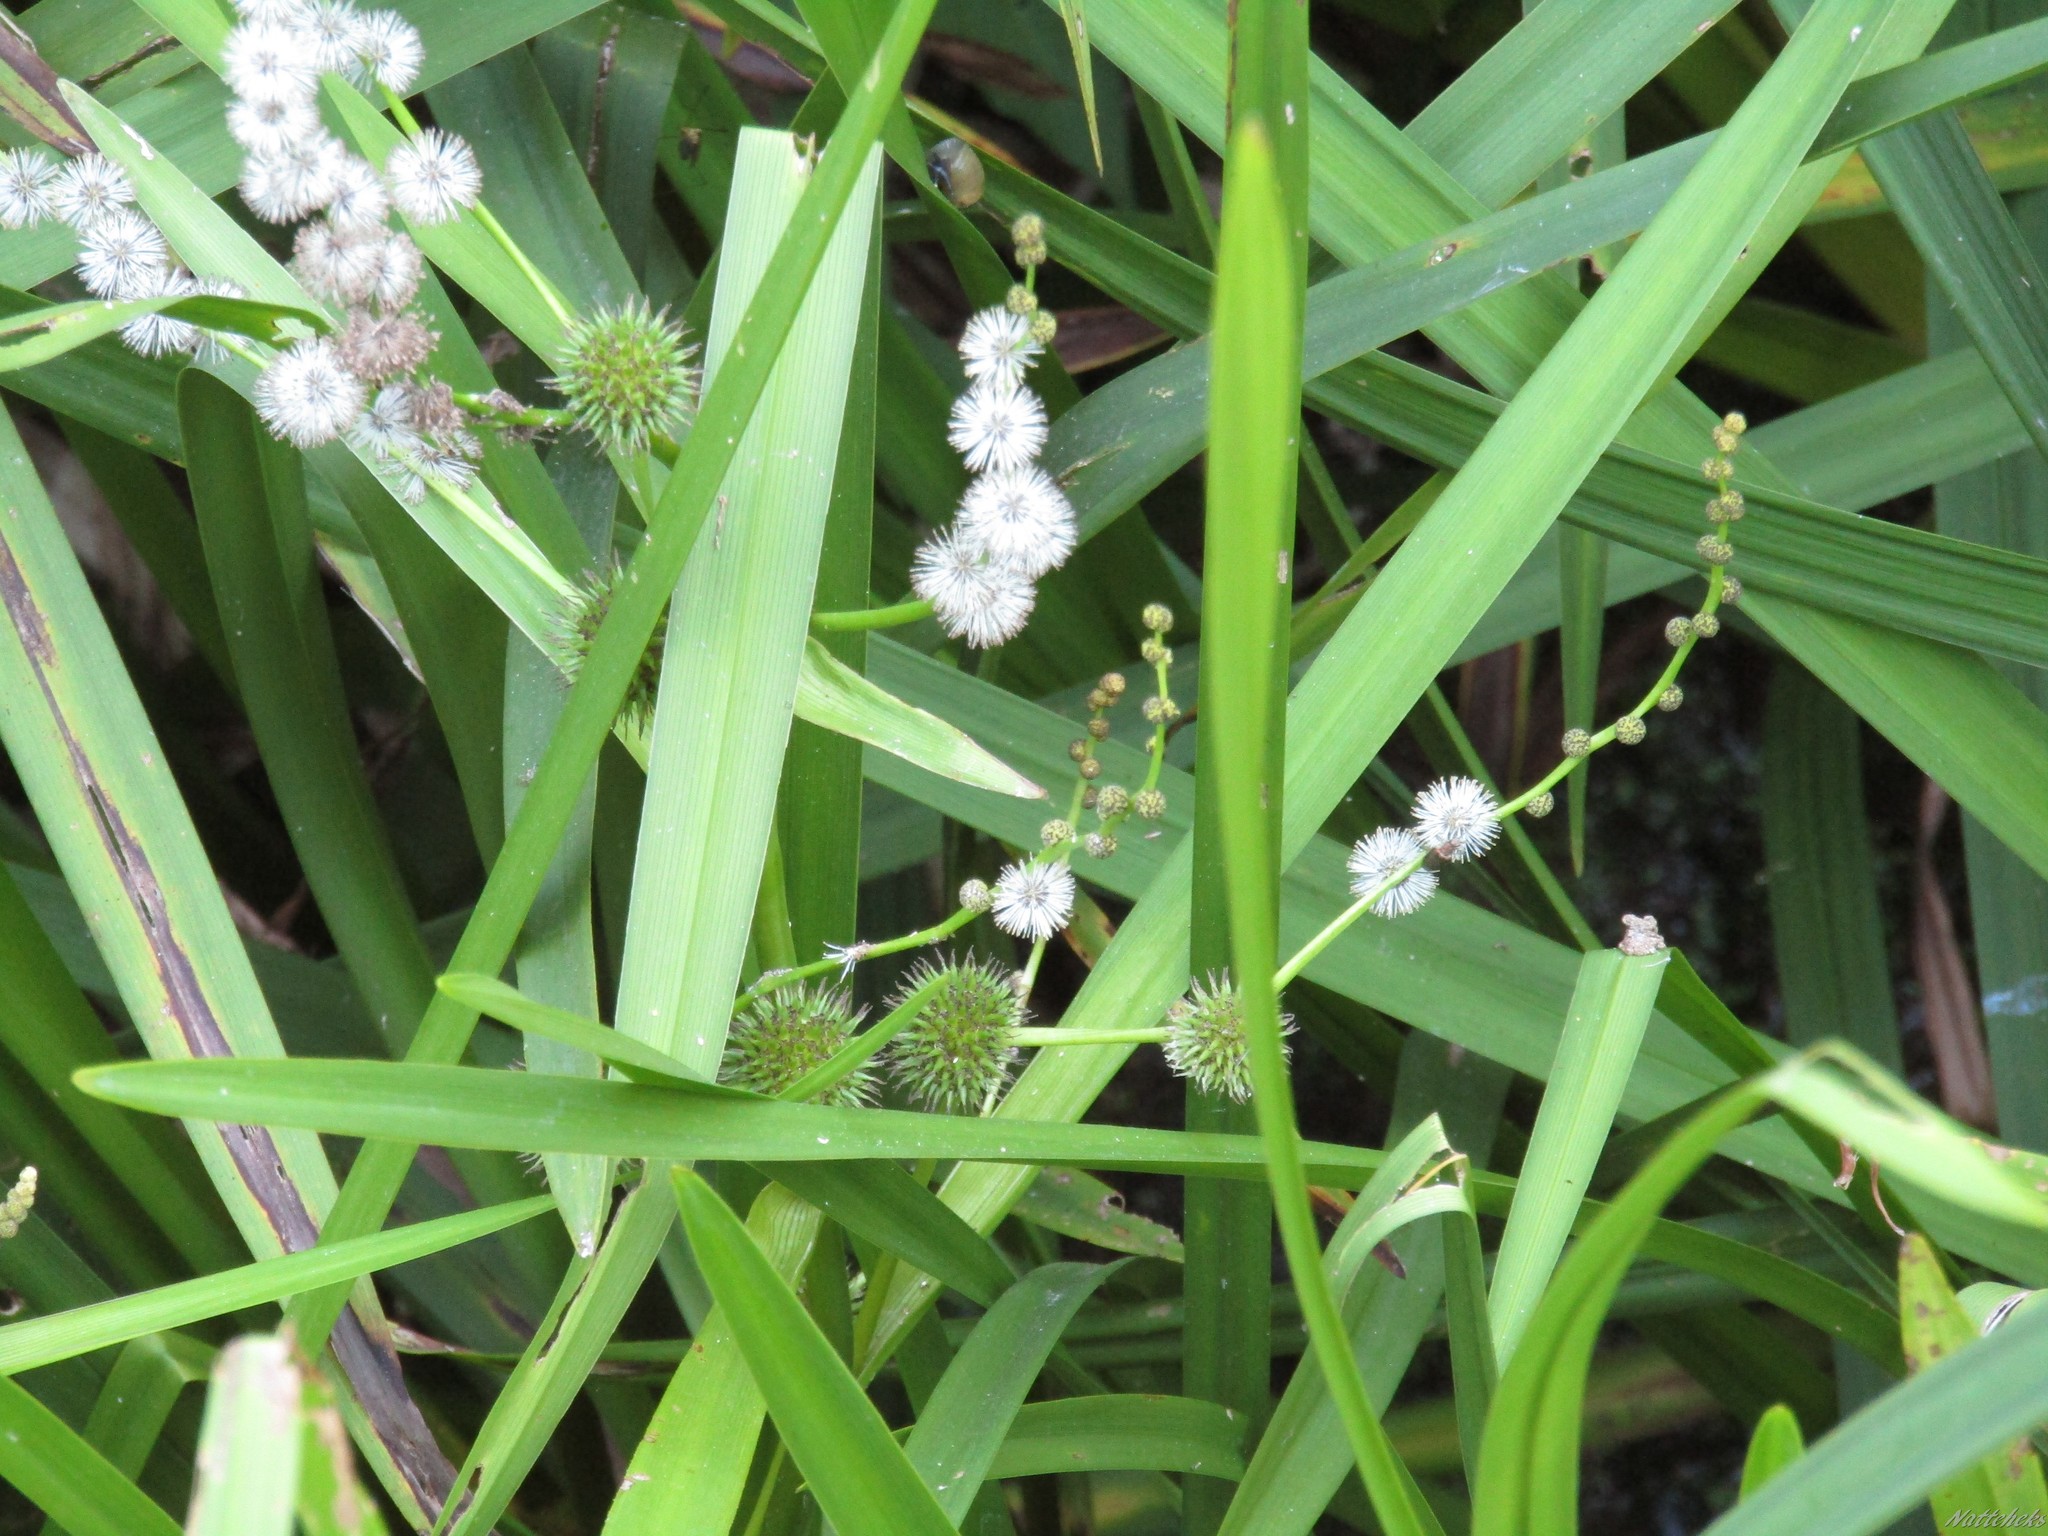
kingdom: Plantae
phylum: Tracheophyta
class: Liliopsida
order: Poales
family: Typhaceae
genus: Sparganium
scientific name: Sparganium erectum
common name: Branched bur-reed
